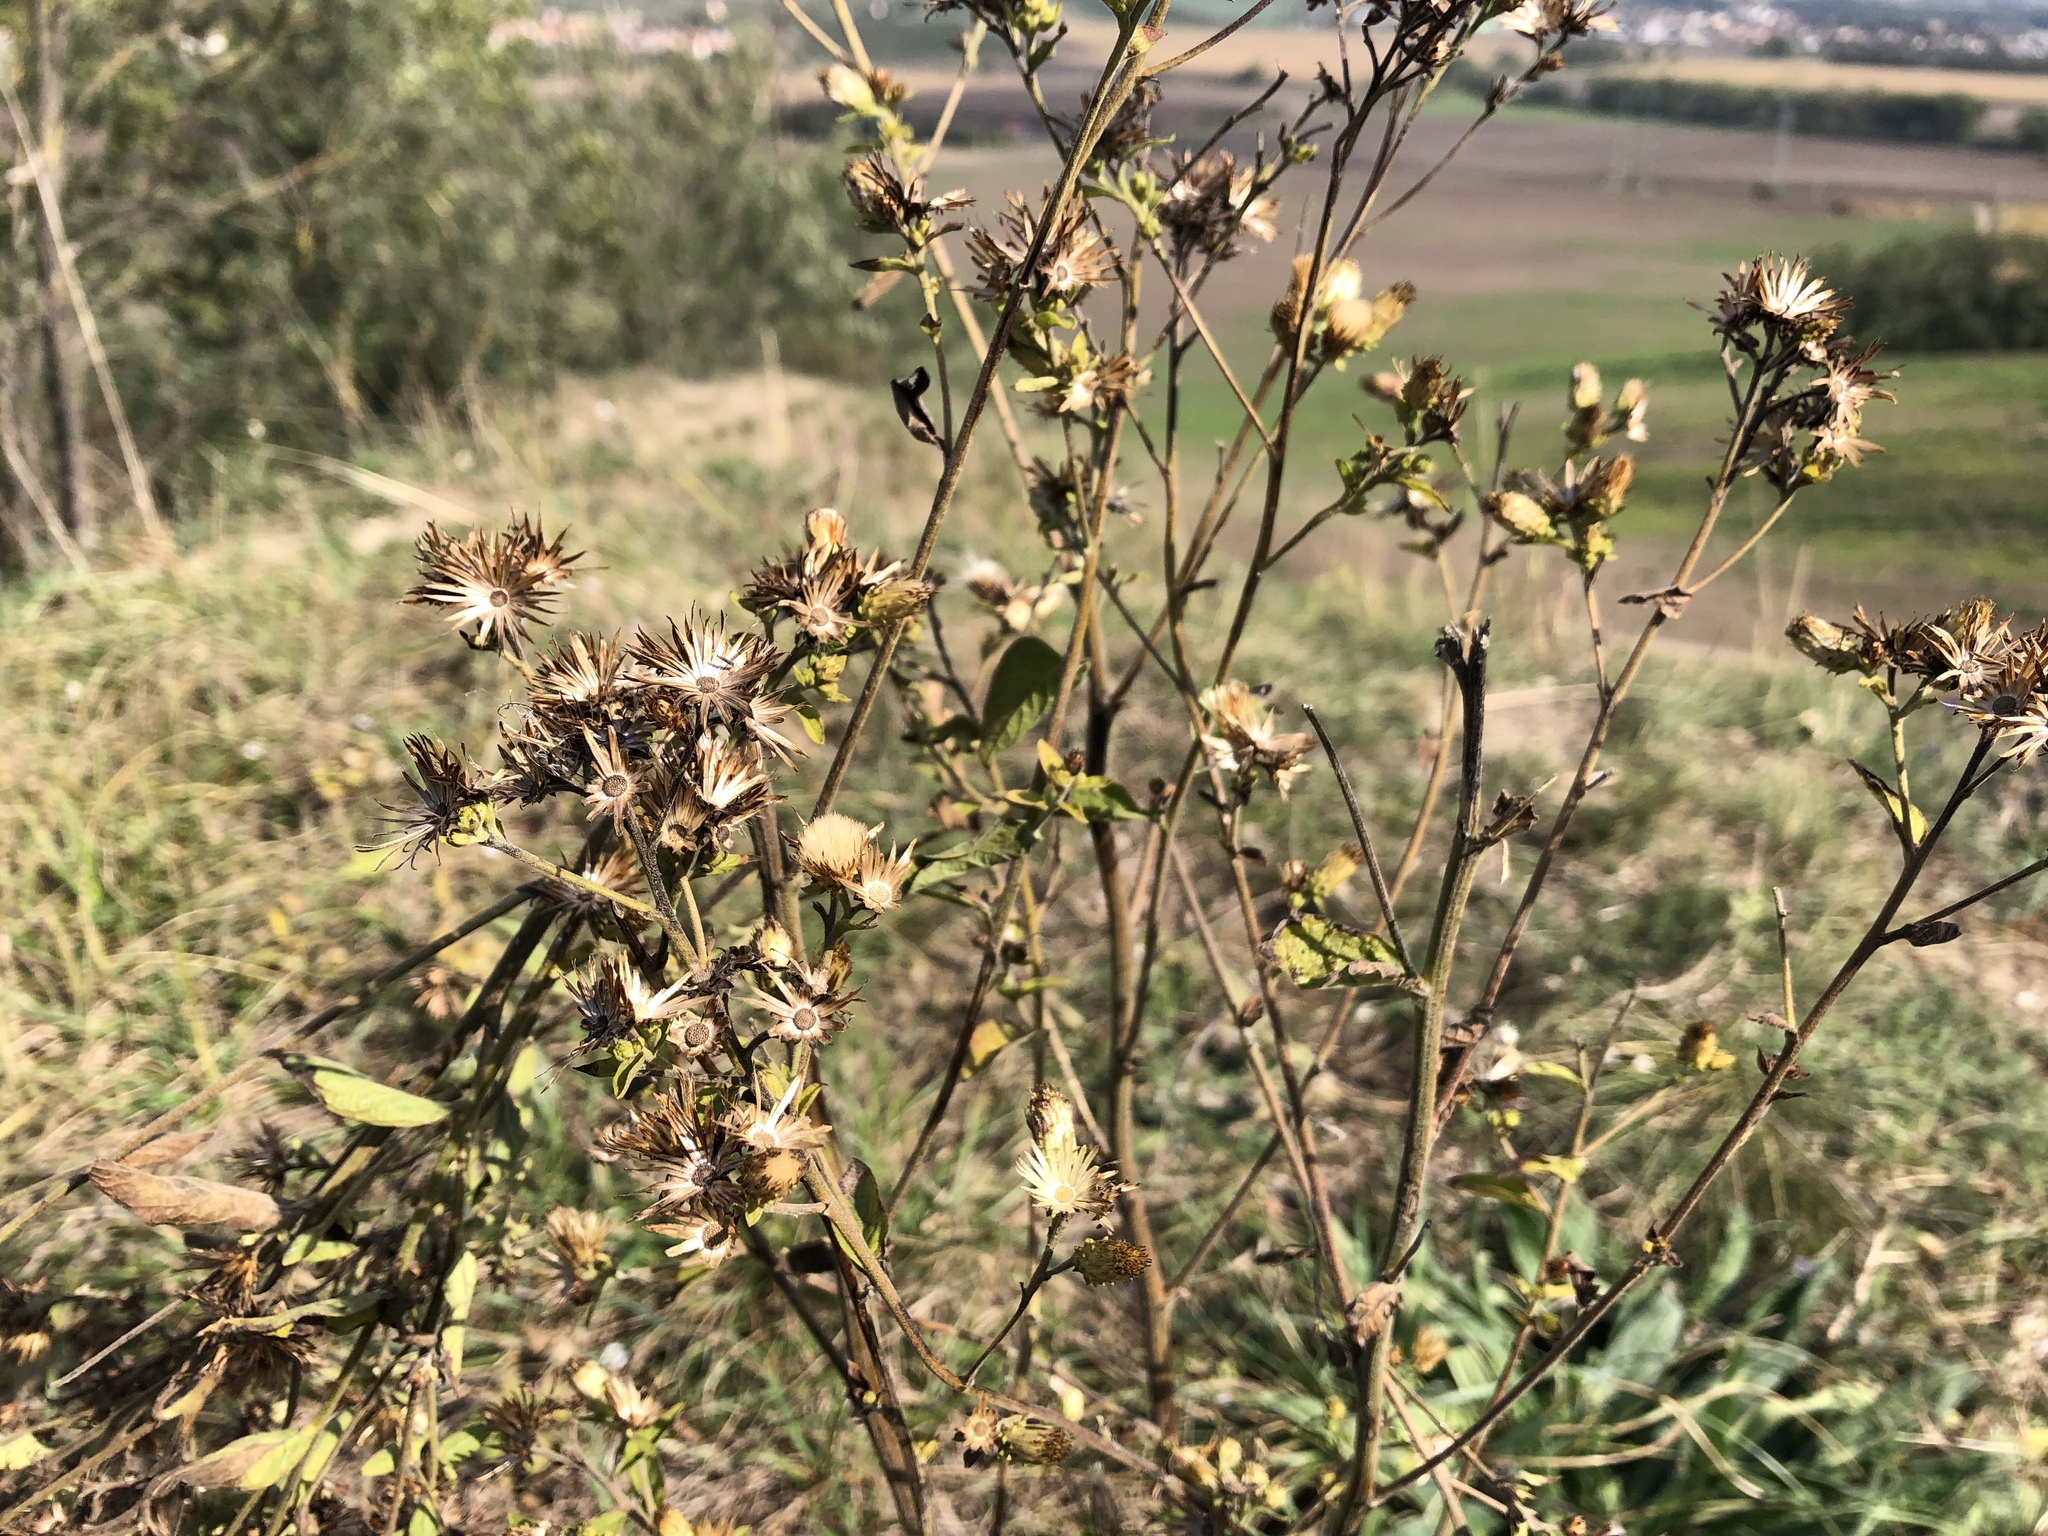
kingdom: Plantae
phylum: Tracheophyta
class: Magnoliopsida
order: Asterales
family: Asteraceae
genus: Pentanema
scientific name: Pentanema squarrosum
